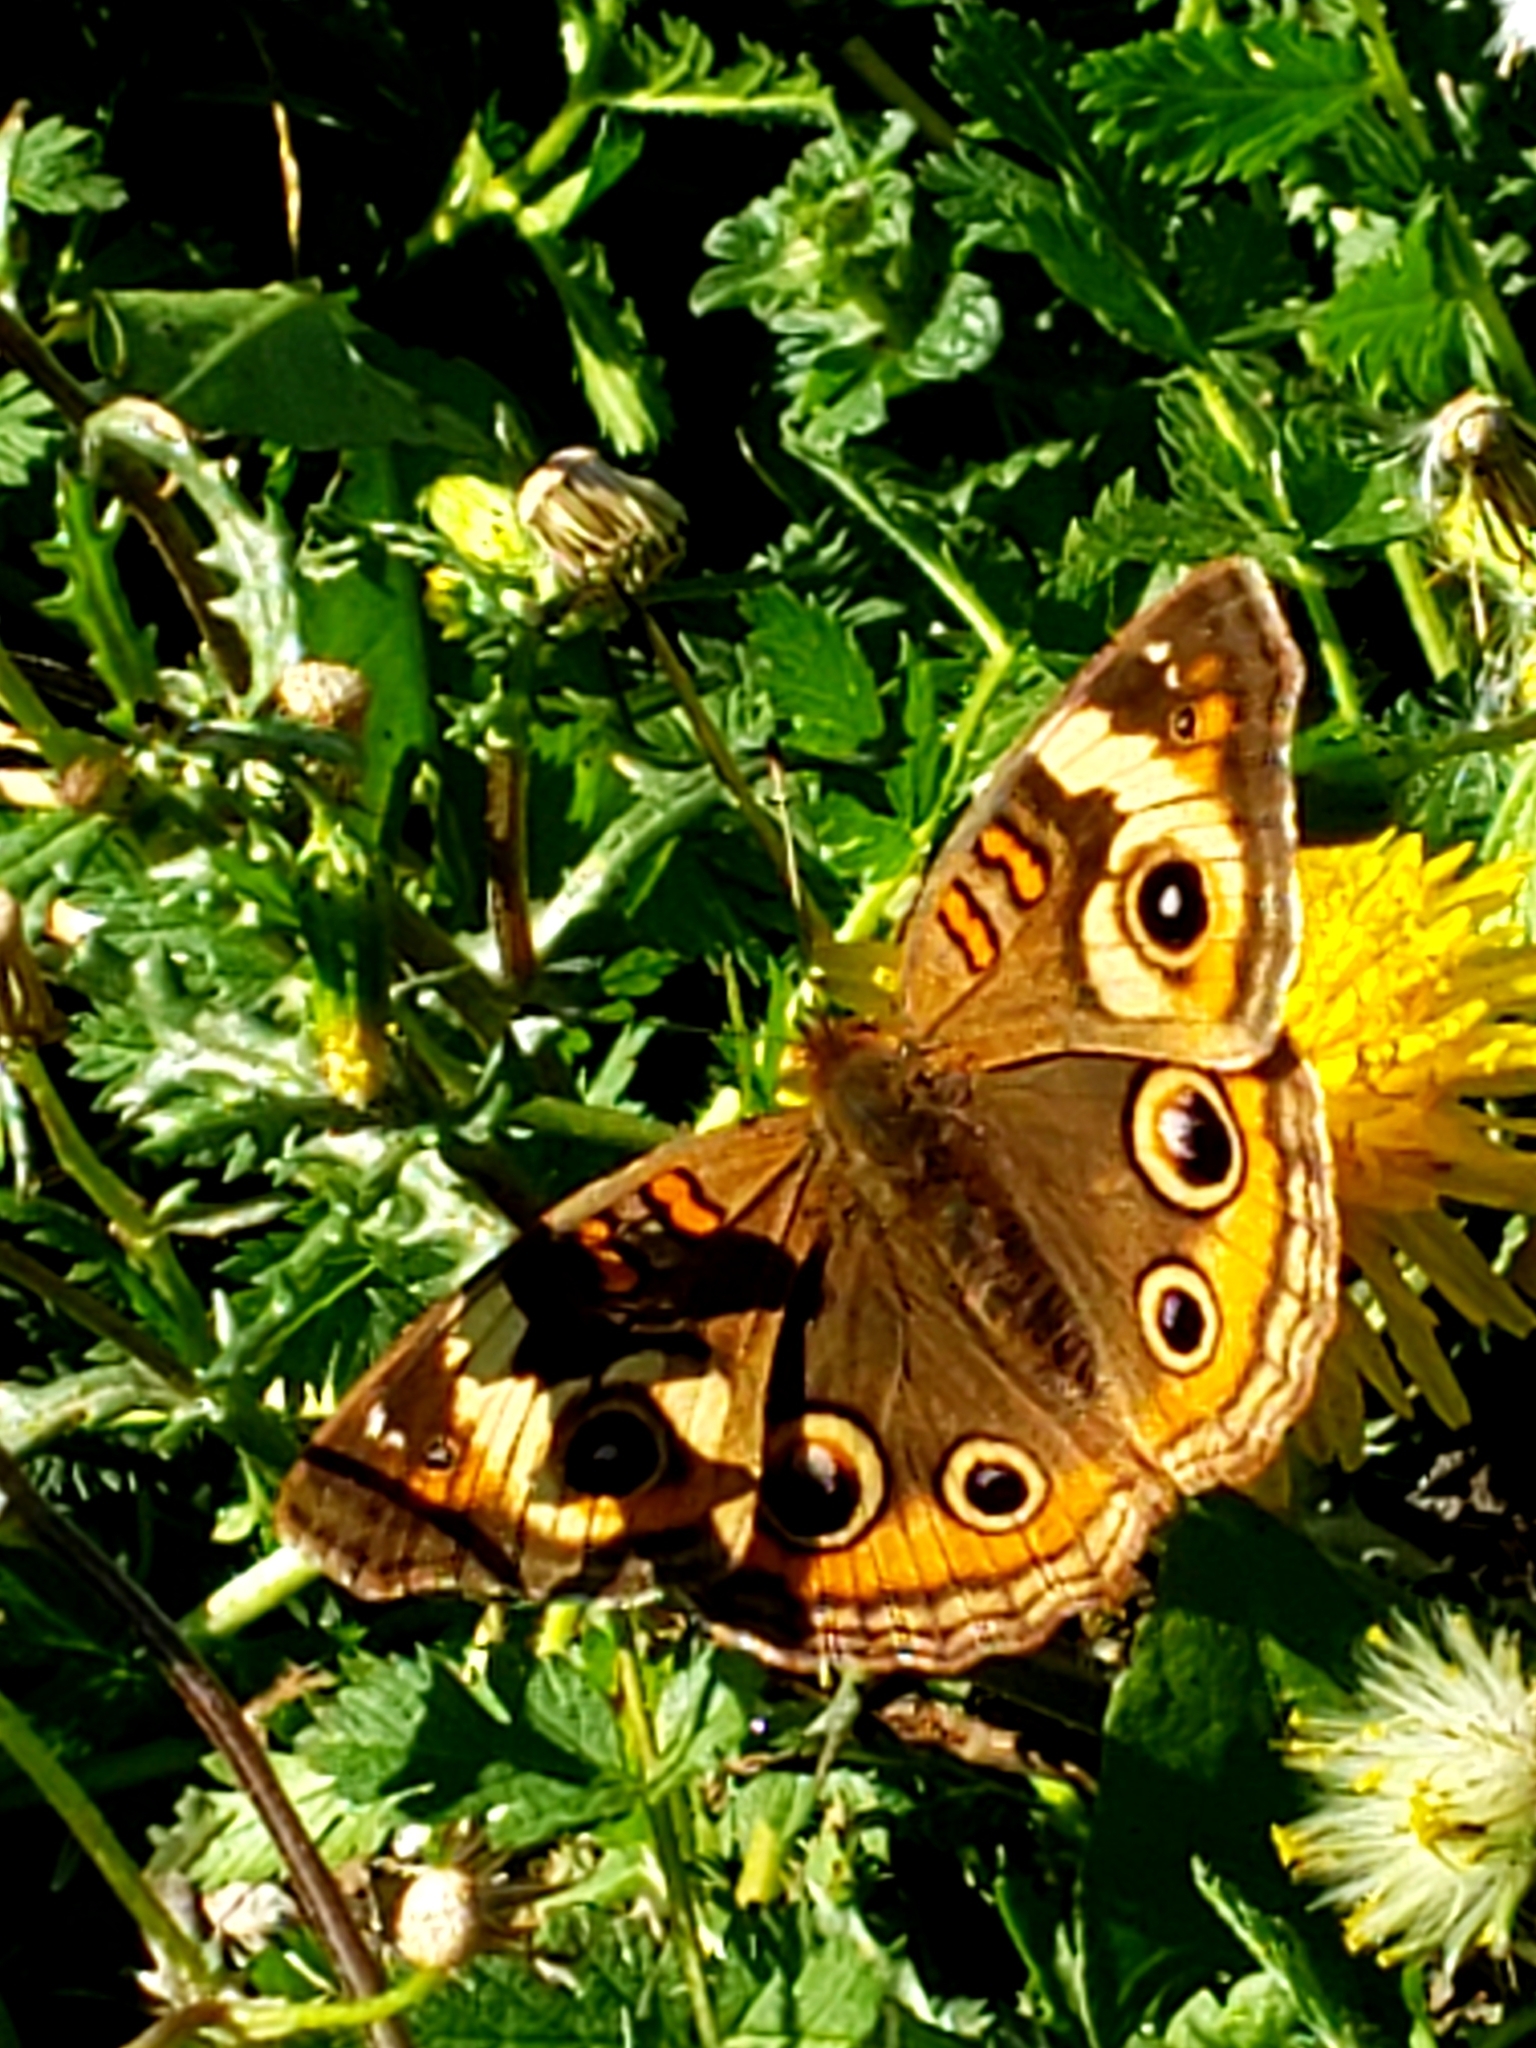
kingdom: Animalia
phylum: Arthropoda
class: Insecta
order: Lepidoptera
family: Nymphalidae
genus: Junonia
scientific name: Junonia coenia
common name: Common buckeye
